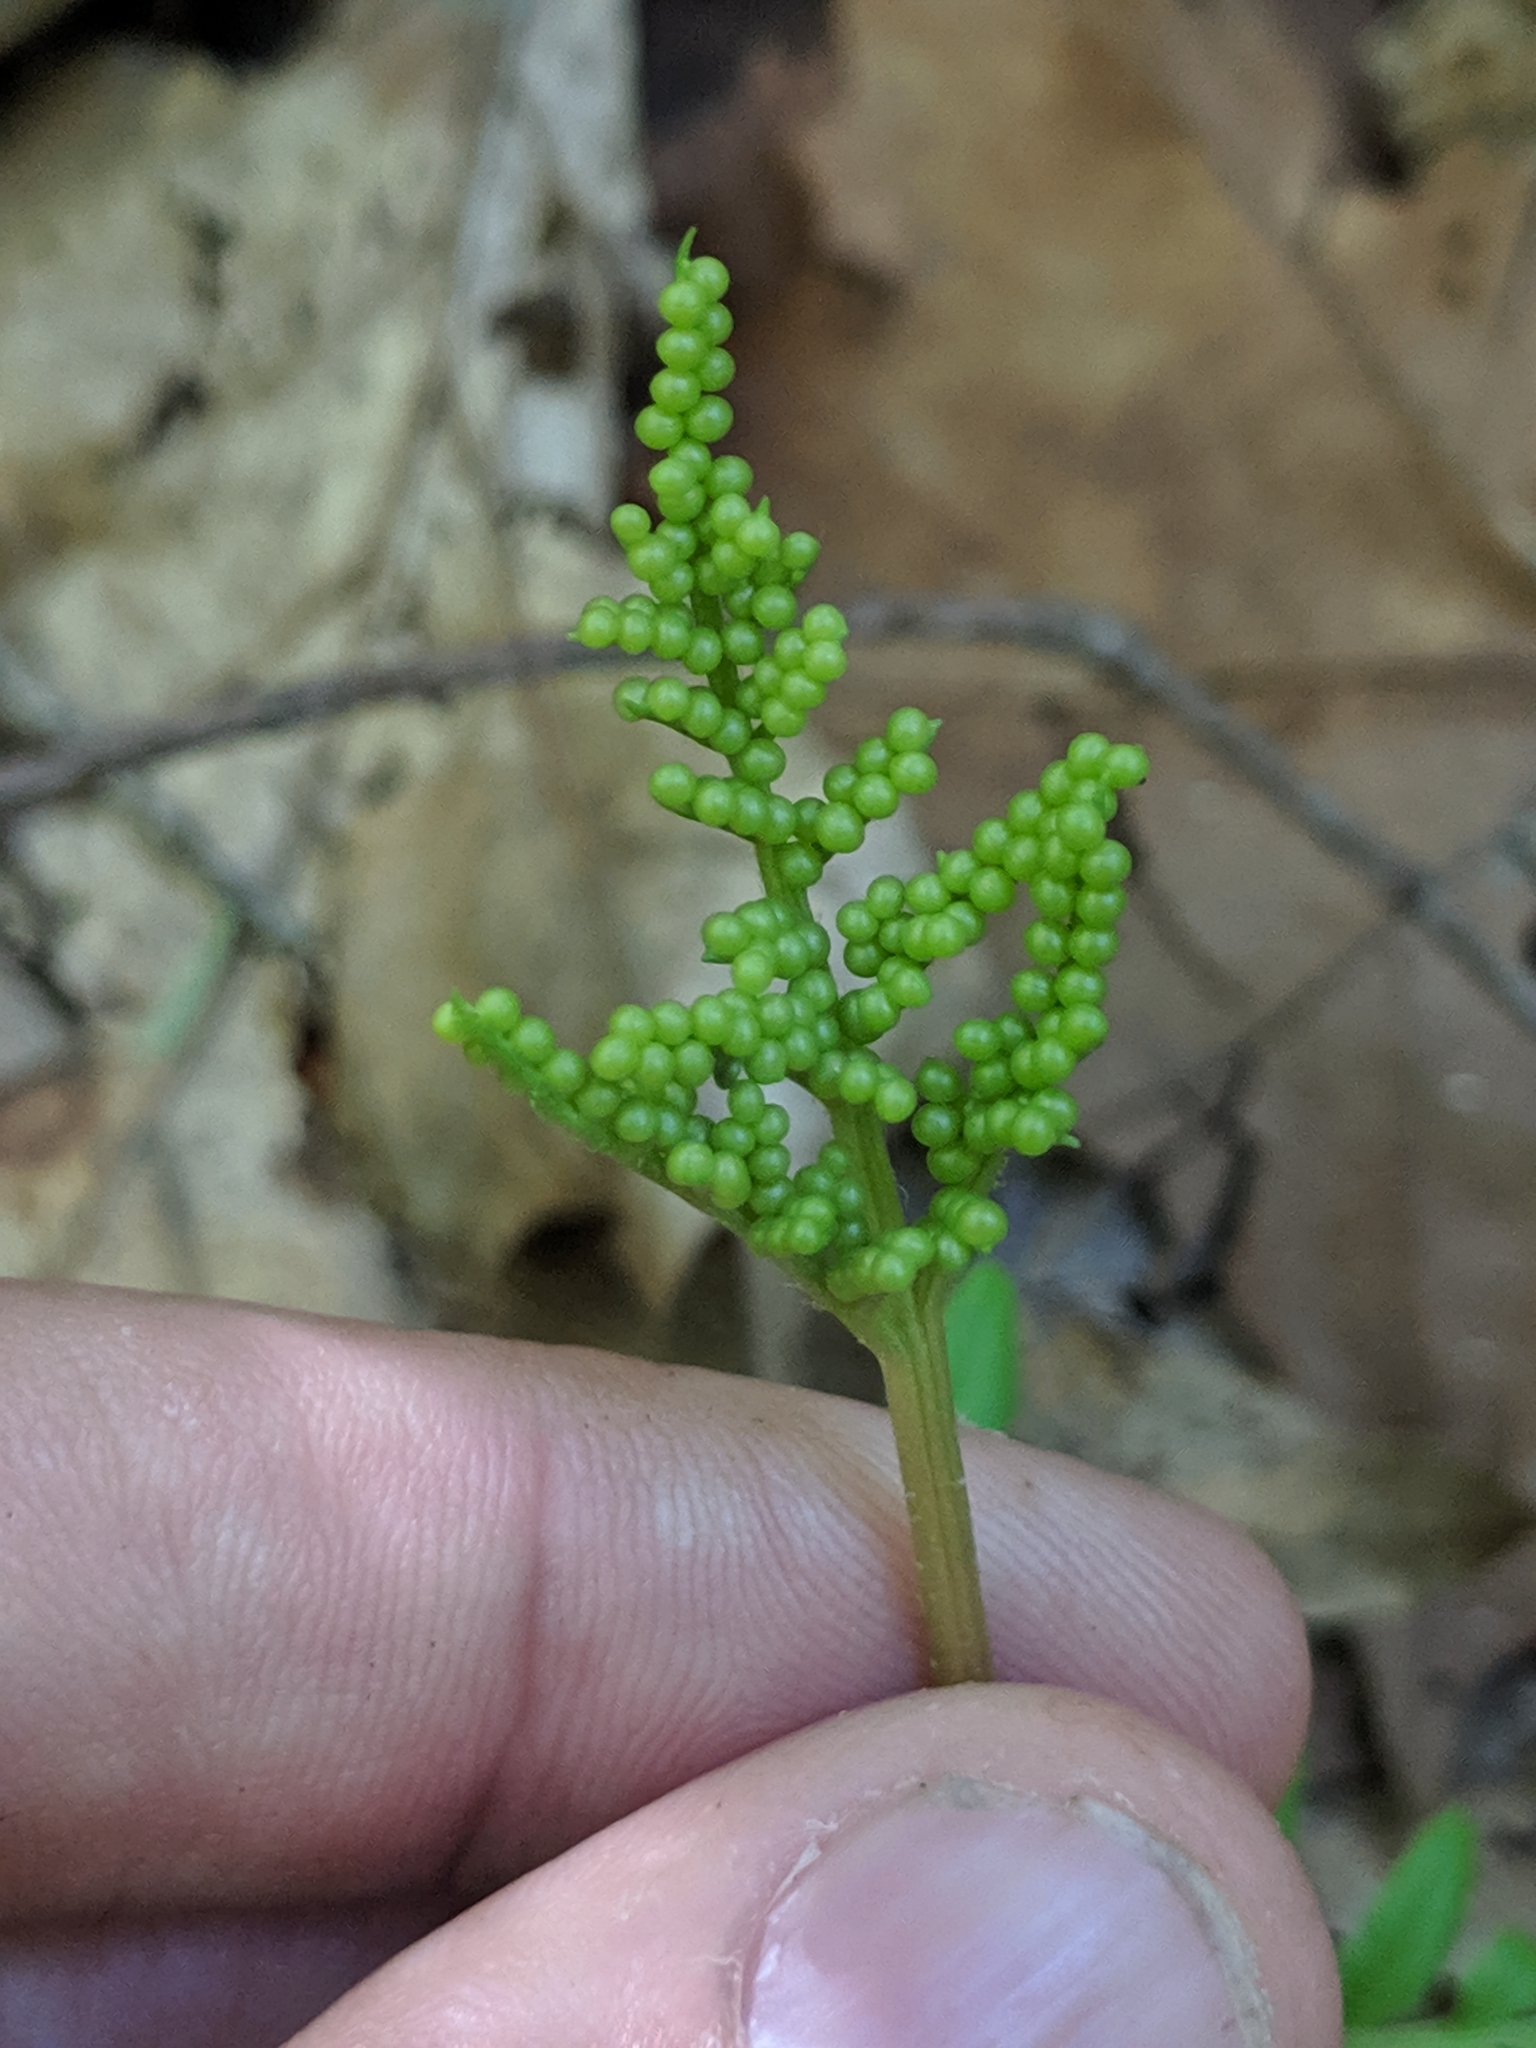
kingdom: Plantae
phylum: Tracheophyta
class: Polypodiopsida
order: Ophioglossales
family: Ophioglossaceae
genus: Sceptridium
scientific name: Sceptridium biternatum
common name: Sparse-lobed grapefern
